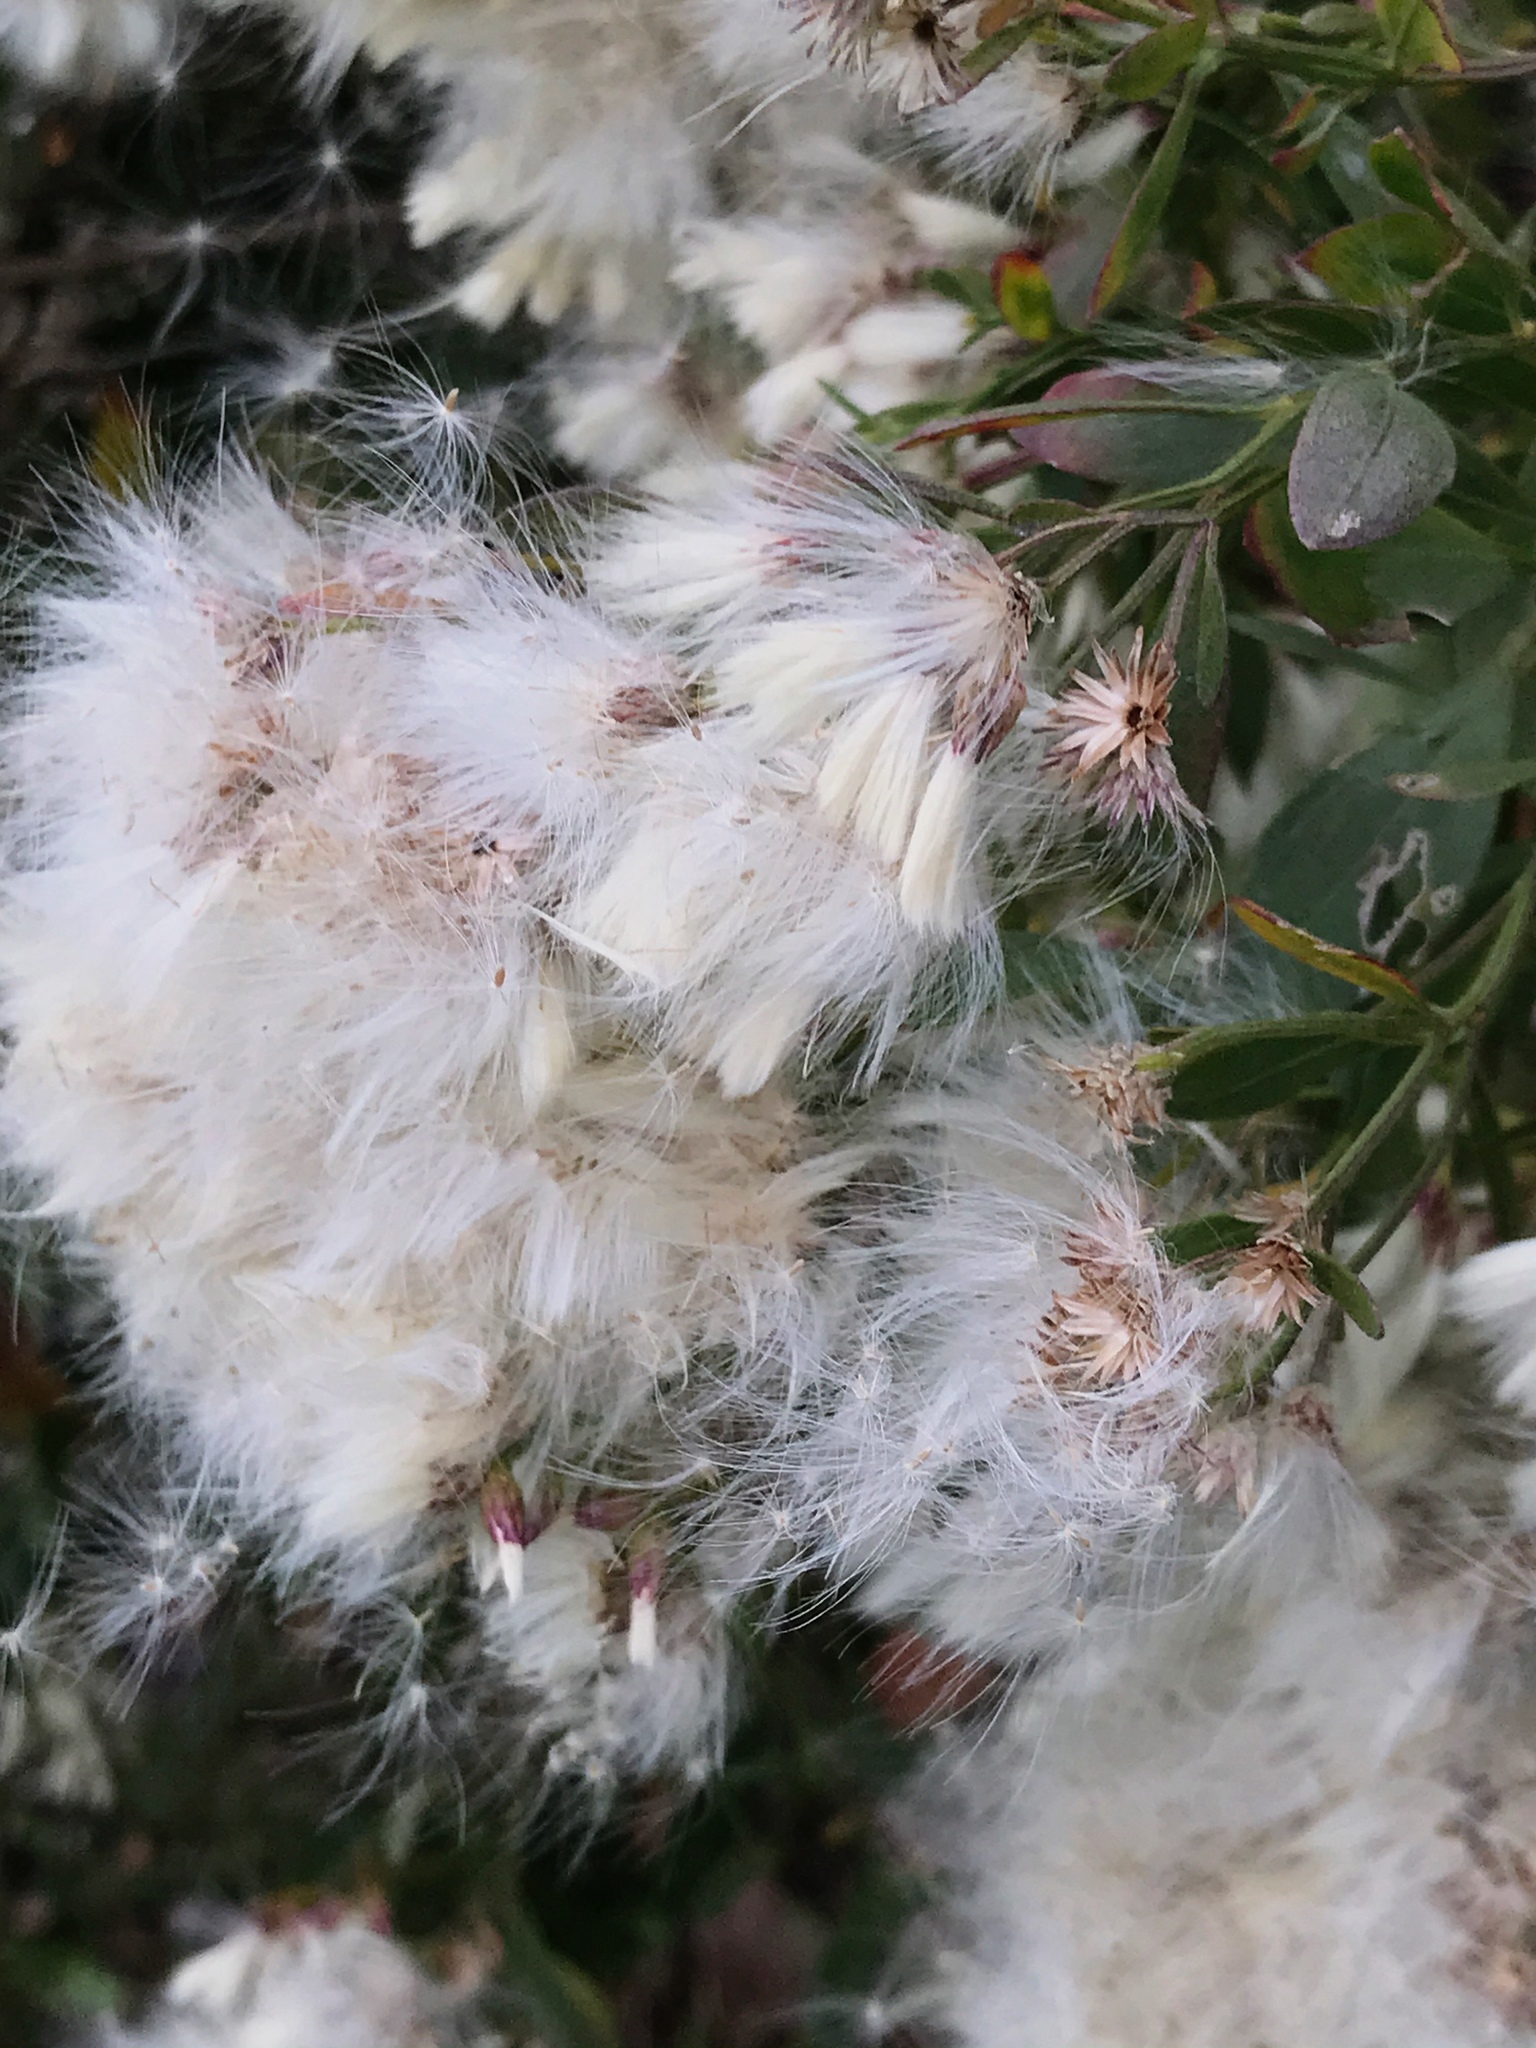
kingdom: Plantae
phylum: Tracheophyta
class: Magnoliopsida
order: Asterales
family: Asteraceae
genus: Baccharis
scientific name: Baccharis halimifolia
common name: Eastern baccharis
